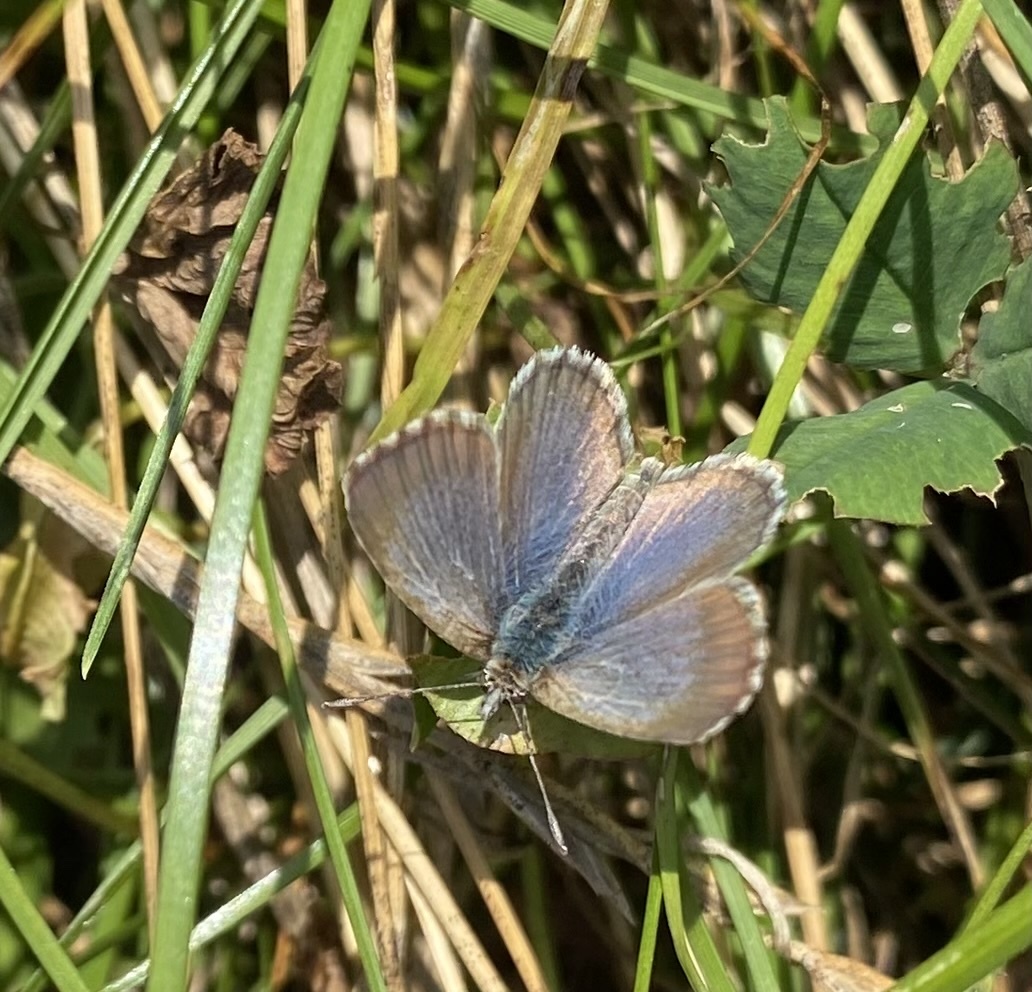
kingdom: Animalia
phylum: Arthropoda
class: Insecta
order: Lepidoptera
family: Lycaenidae
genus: Zizina
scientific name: Zizina oxleyi
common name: Southern blue
